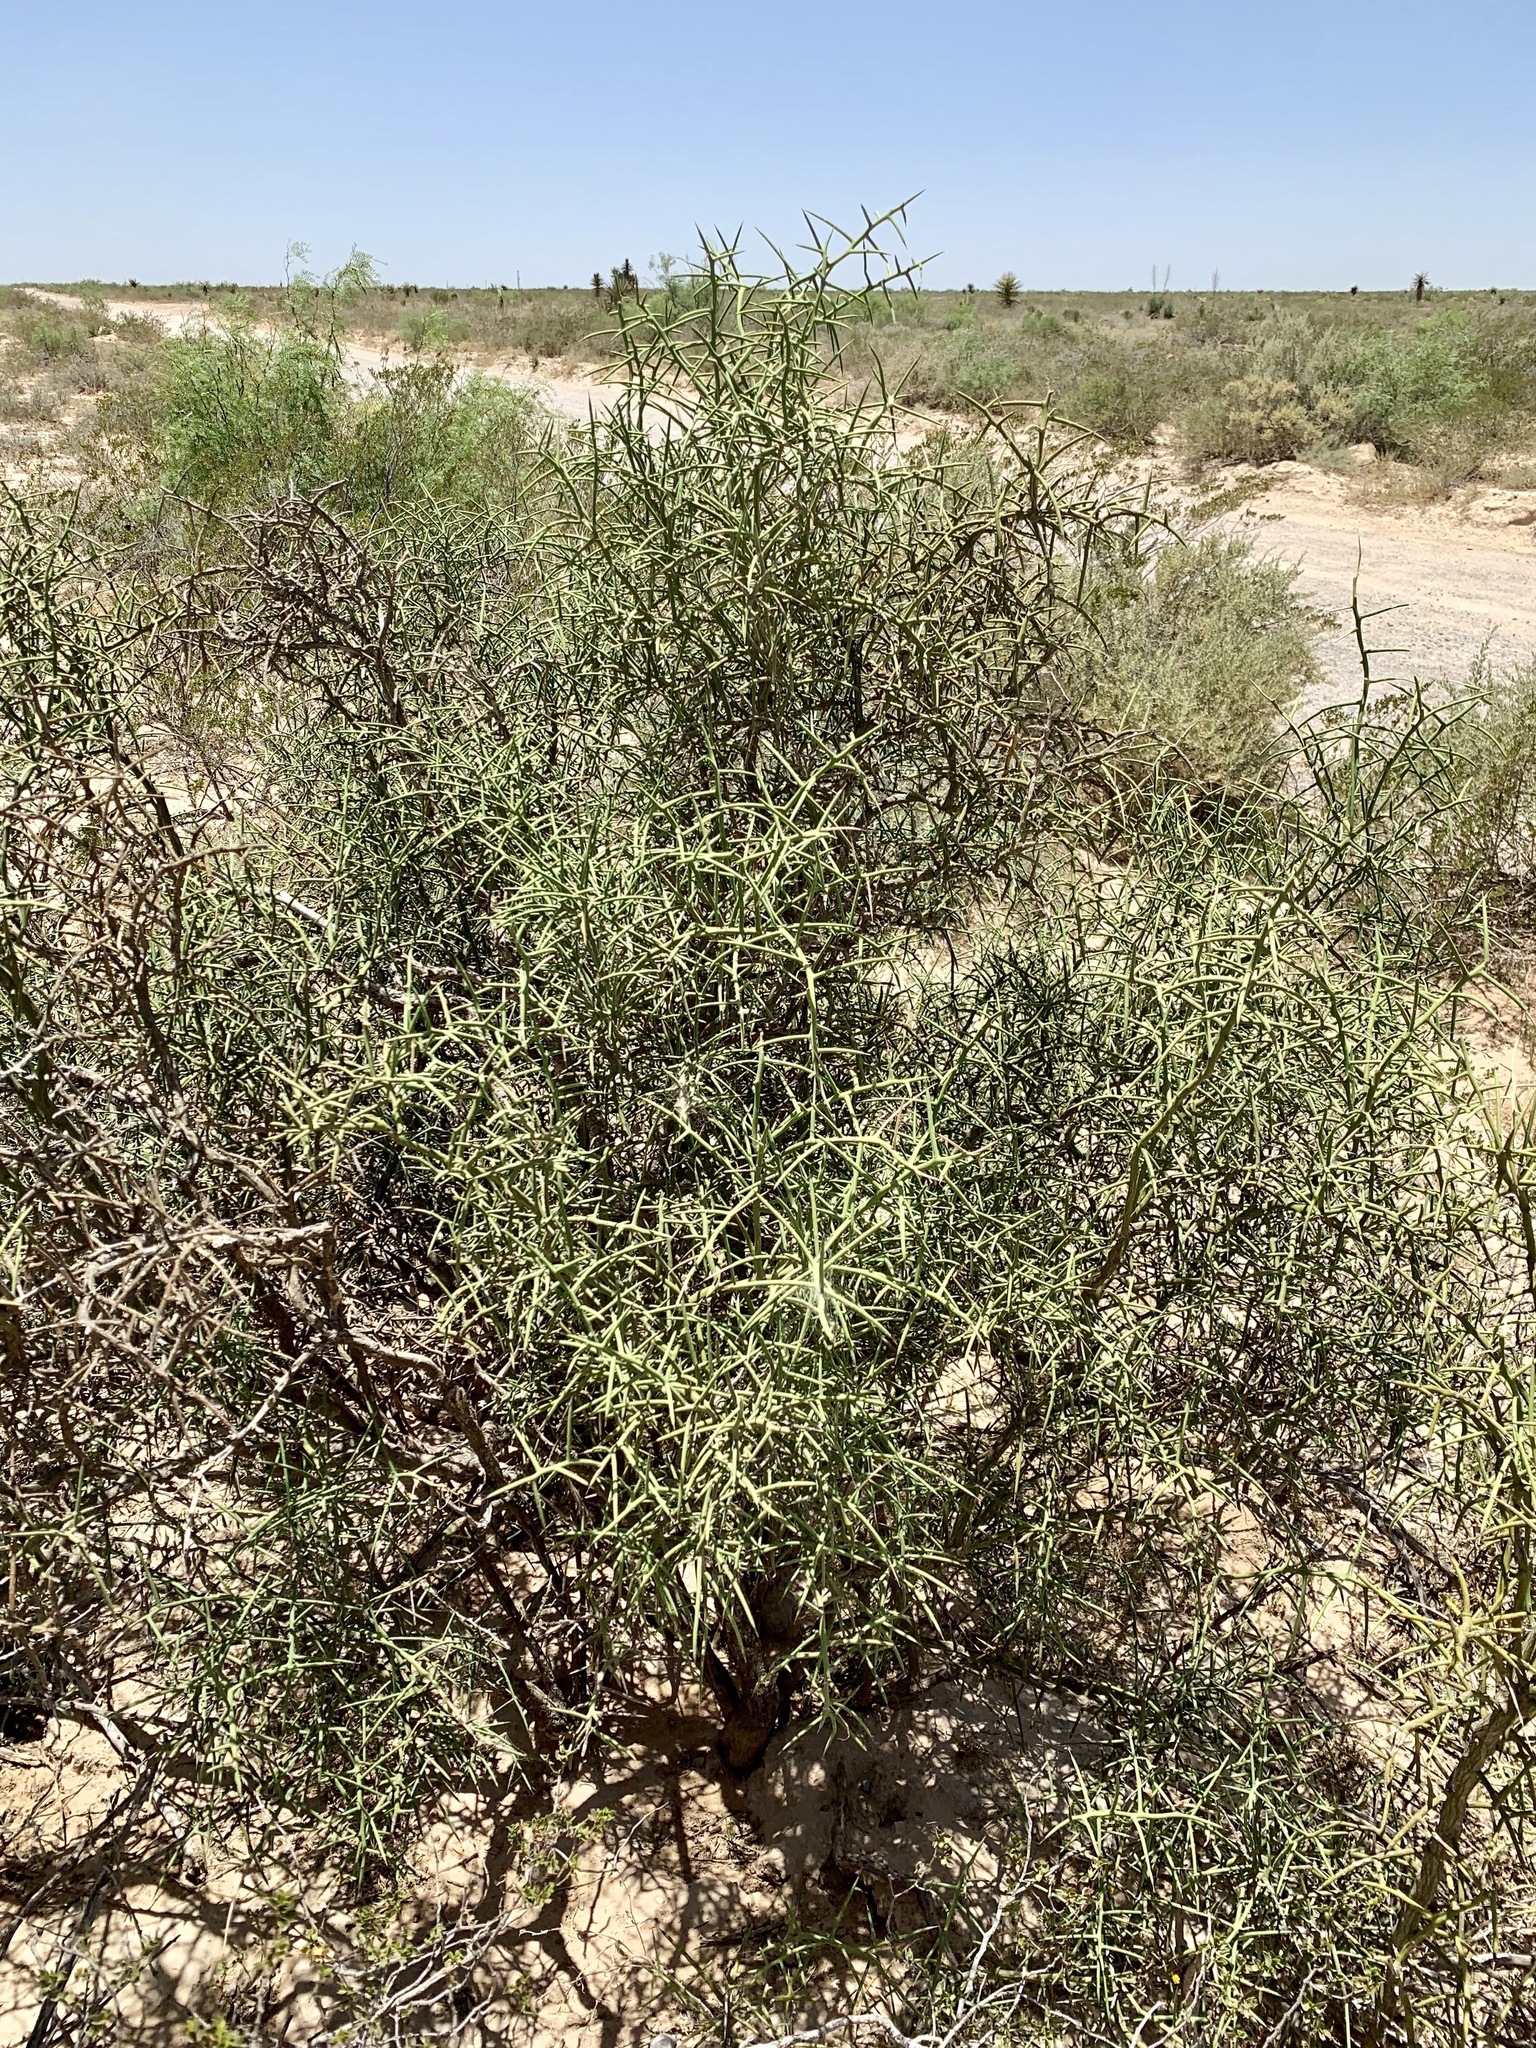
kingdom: Plantae
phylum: Tracheophyta
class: Magnoliopsida
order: Brassicales
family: Koeberliniaceae
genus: Koeberlinia
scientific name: Koeberlinia spinosa
